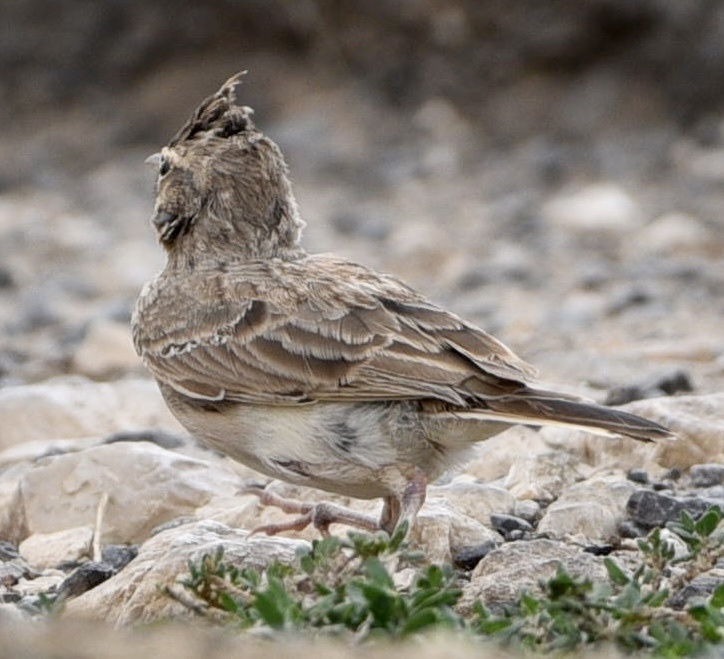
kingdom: Animalia
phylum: Chordata
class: Aves
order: Passeriformes
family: Alaudidae
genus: Galerida
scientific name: Galerida cristata
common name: Crested lark
